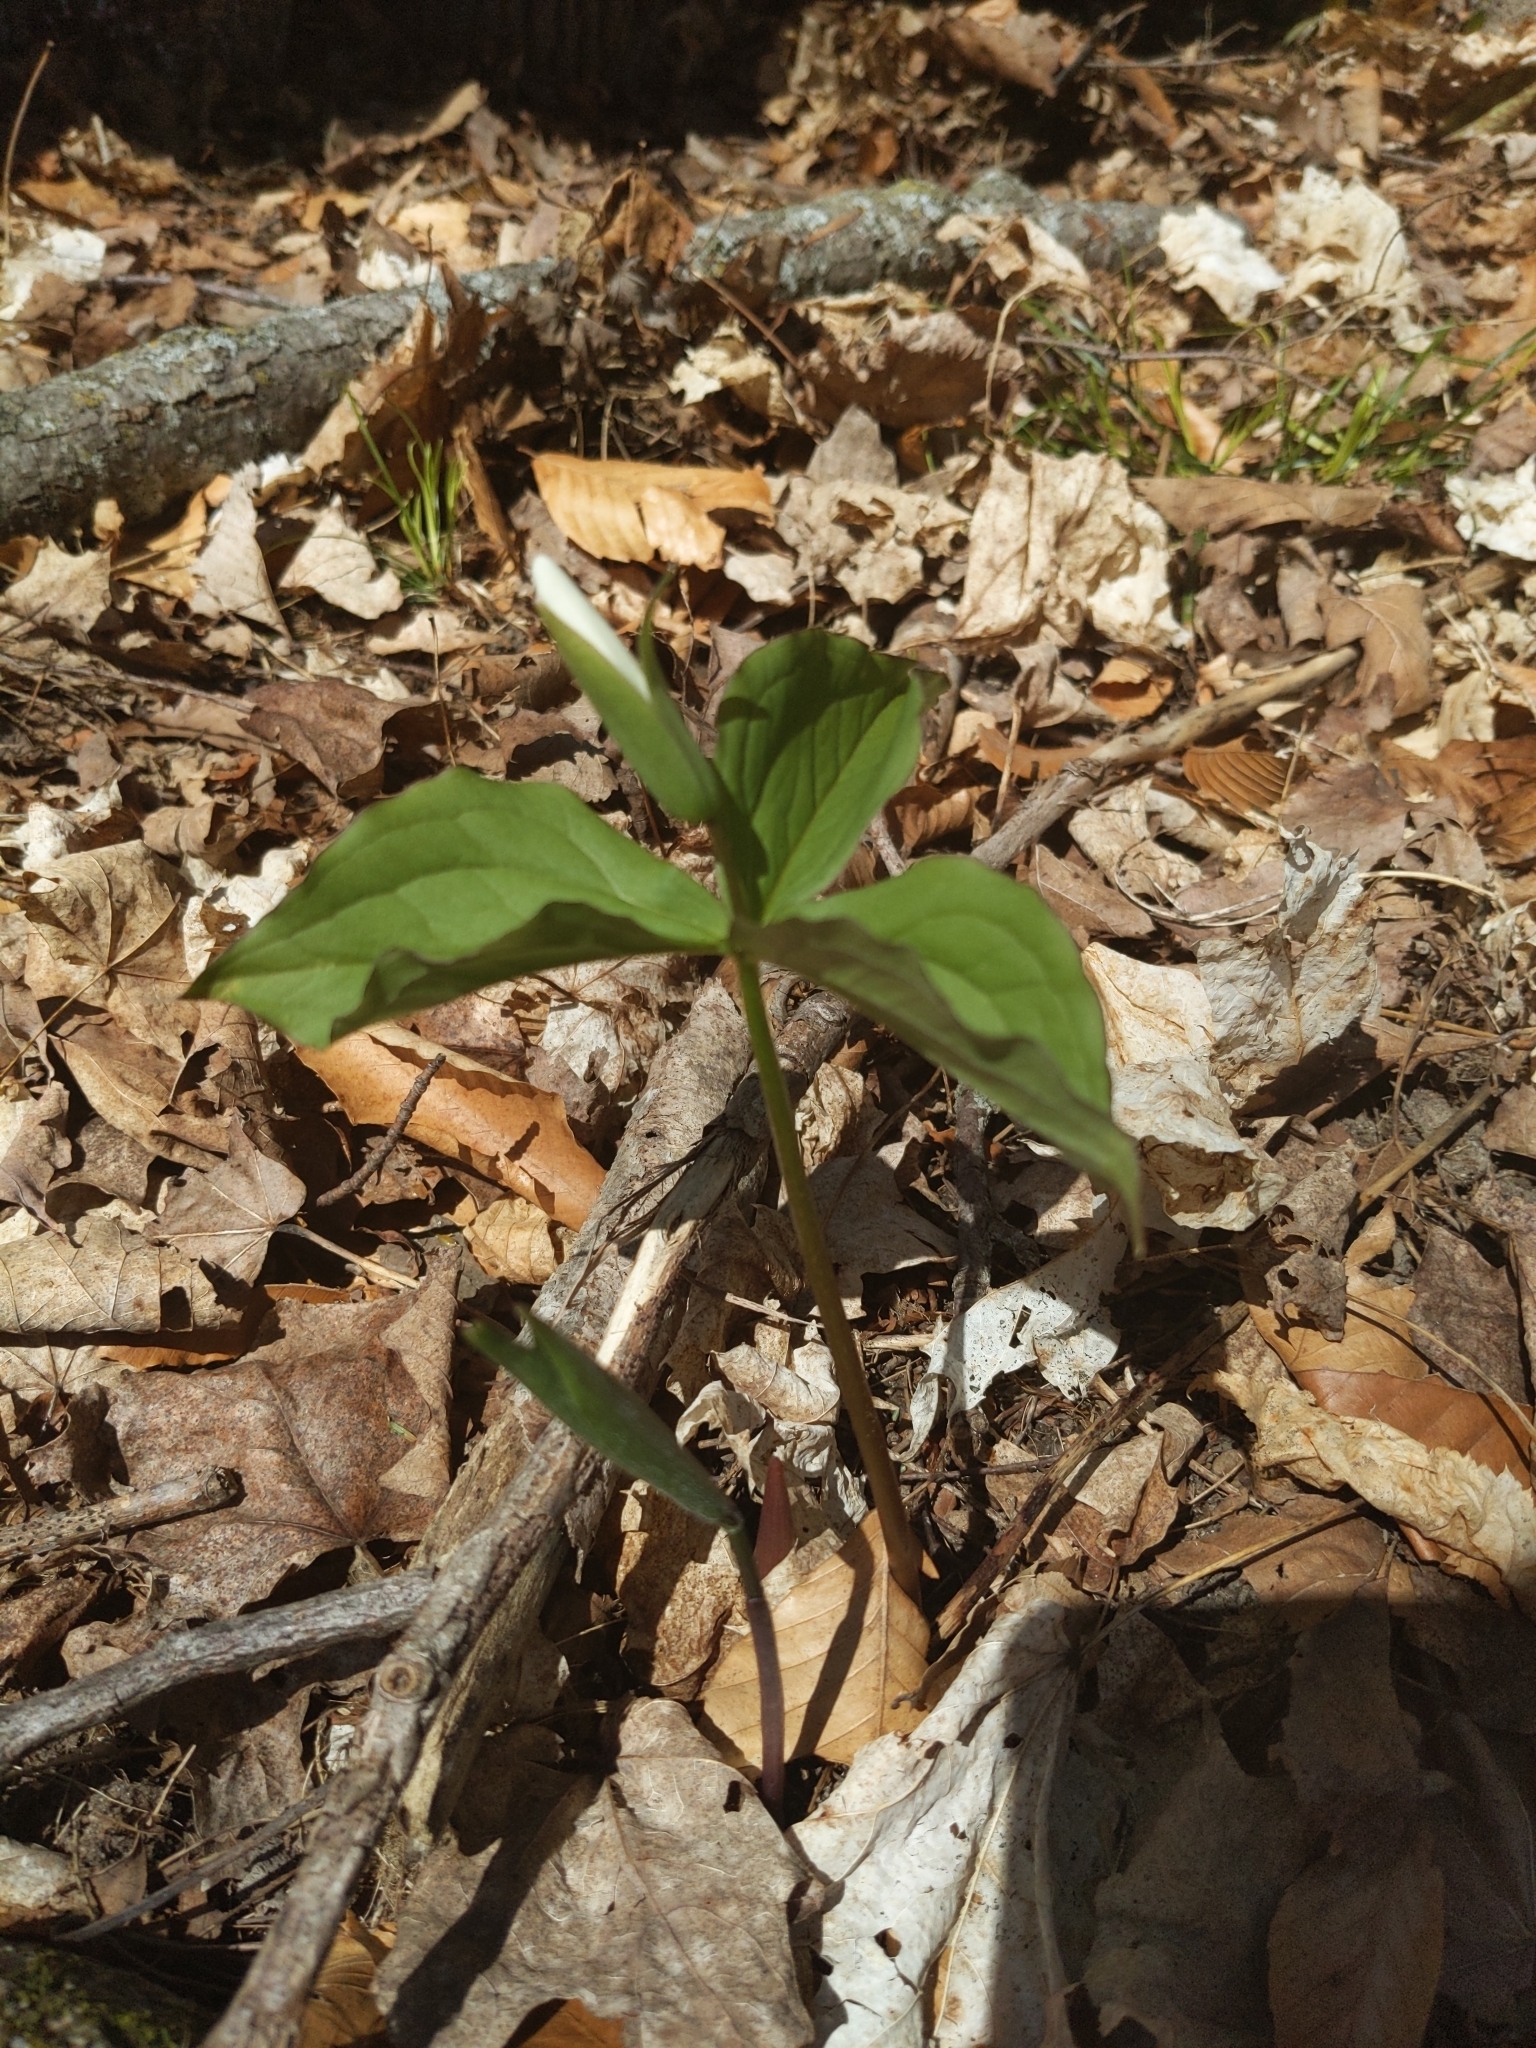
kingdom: Plantae
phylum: Tracheophyta
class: Liliopsida
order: Liliales
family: Melanthiaceae
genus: Trillium
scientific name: Trillium grandiflorum
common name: Great white trillium
